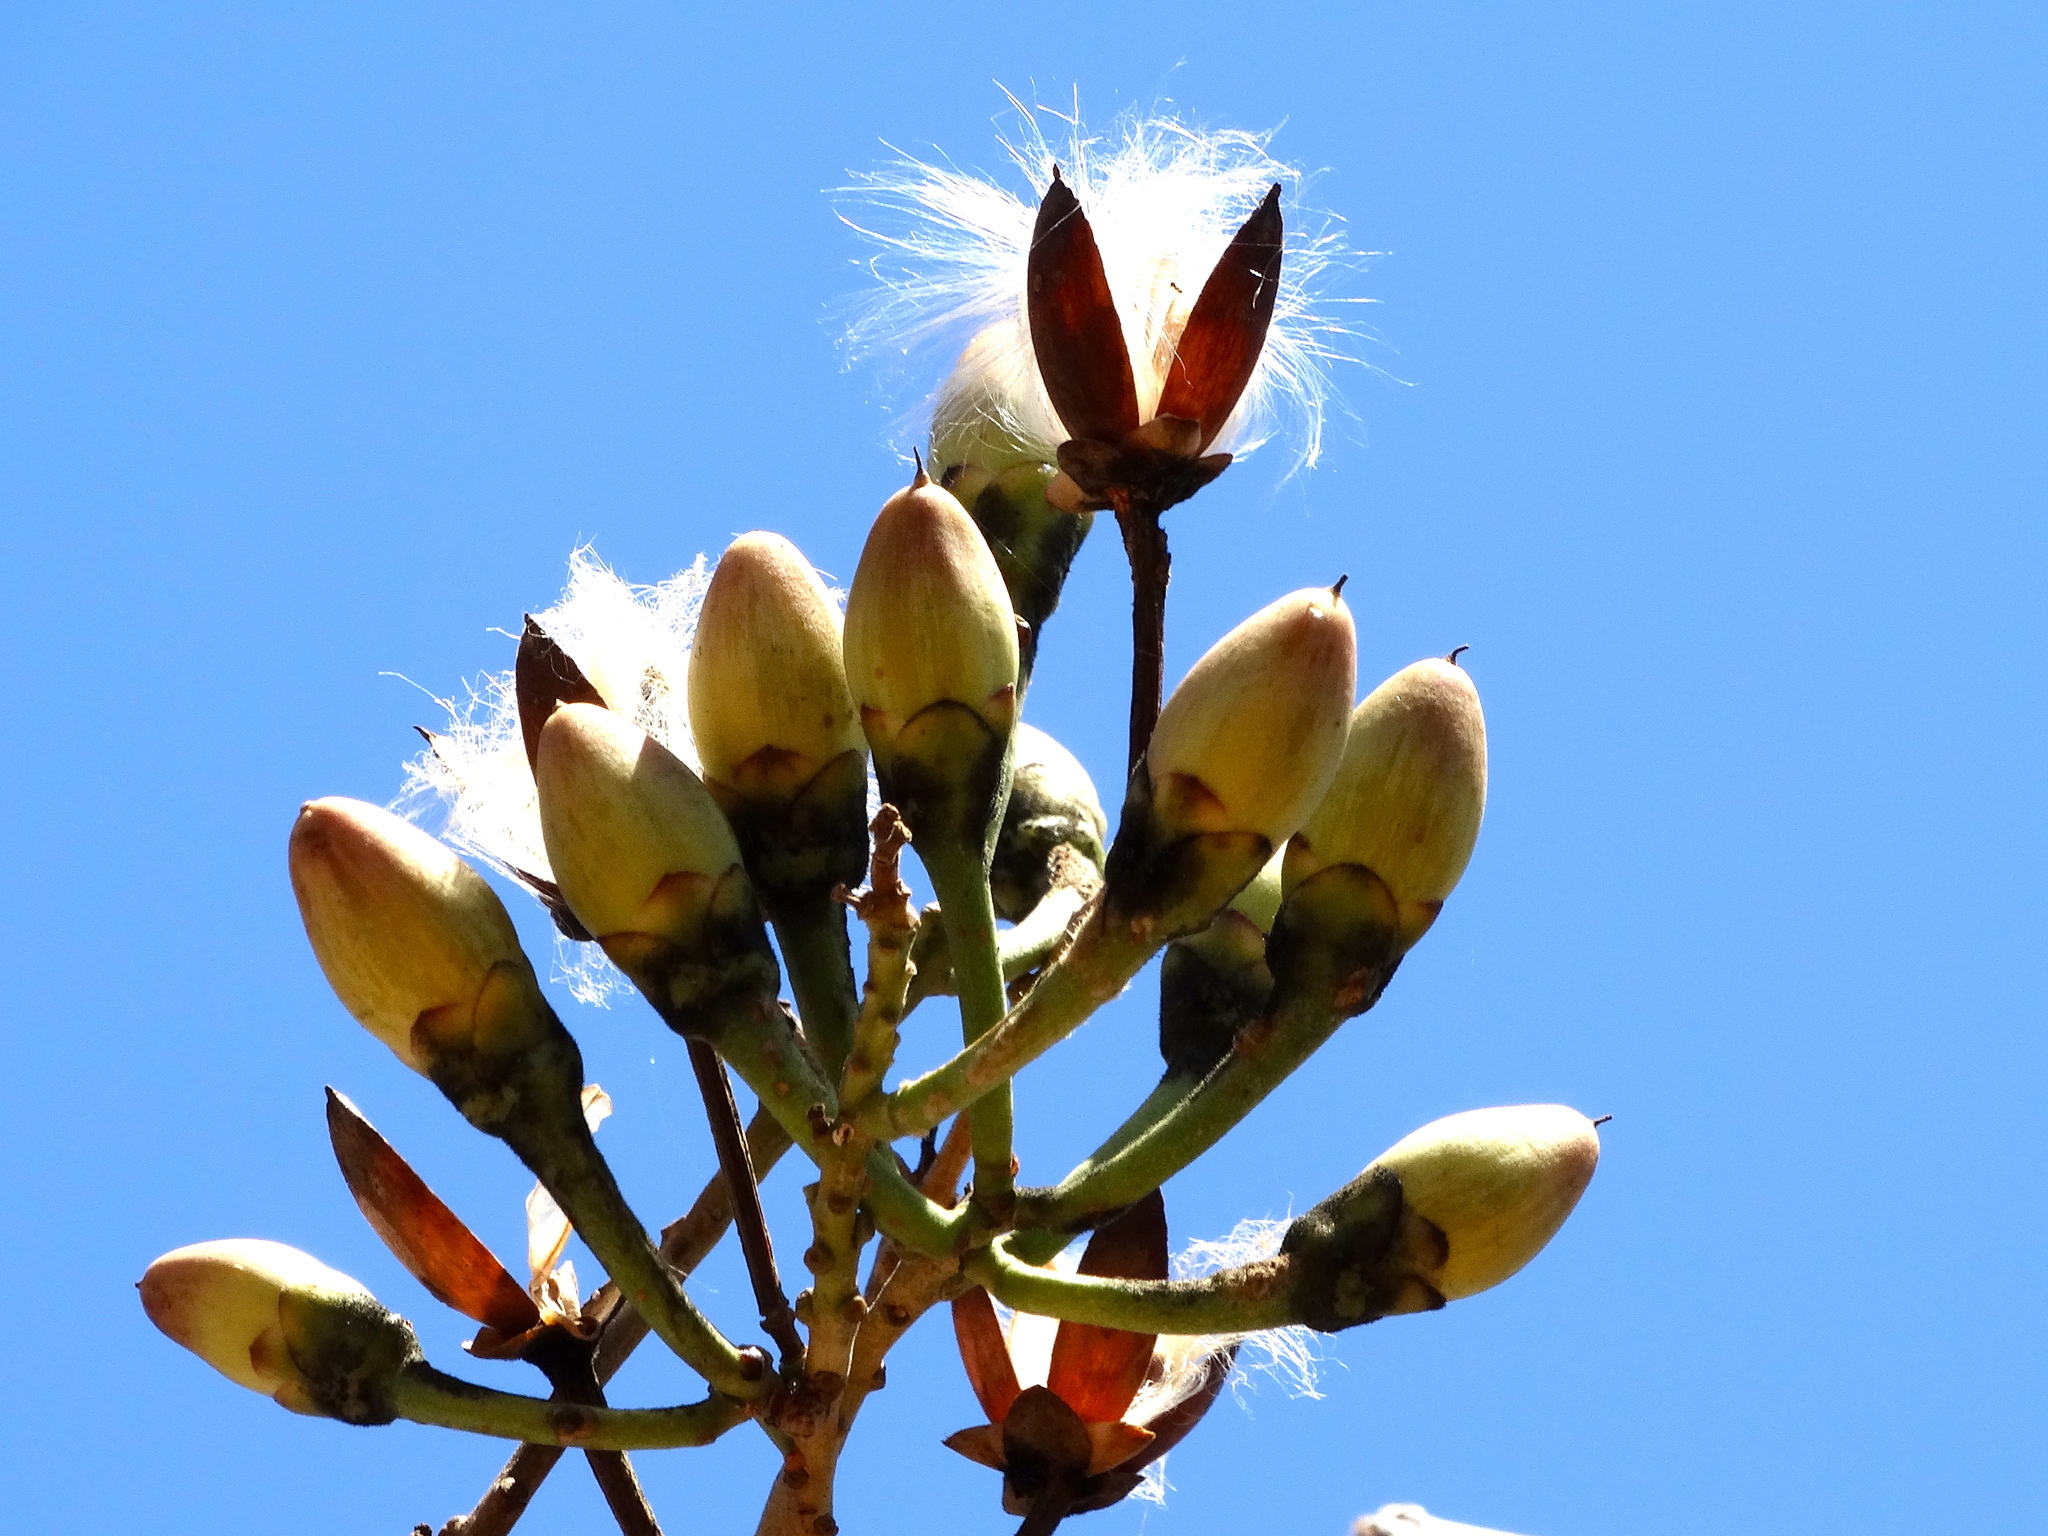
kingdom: Plantae
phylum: Tracheophyta
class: Magnoliopsida
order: Solanales
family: Convolvulaceae
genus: Ipomoea
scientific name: Ipomoea arborescens
